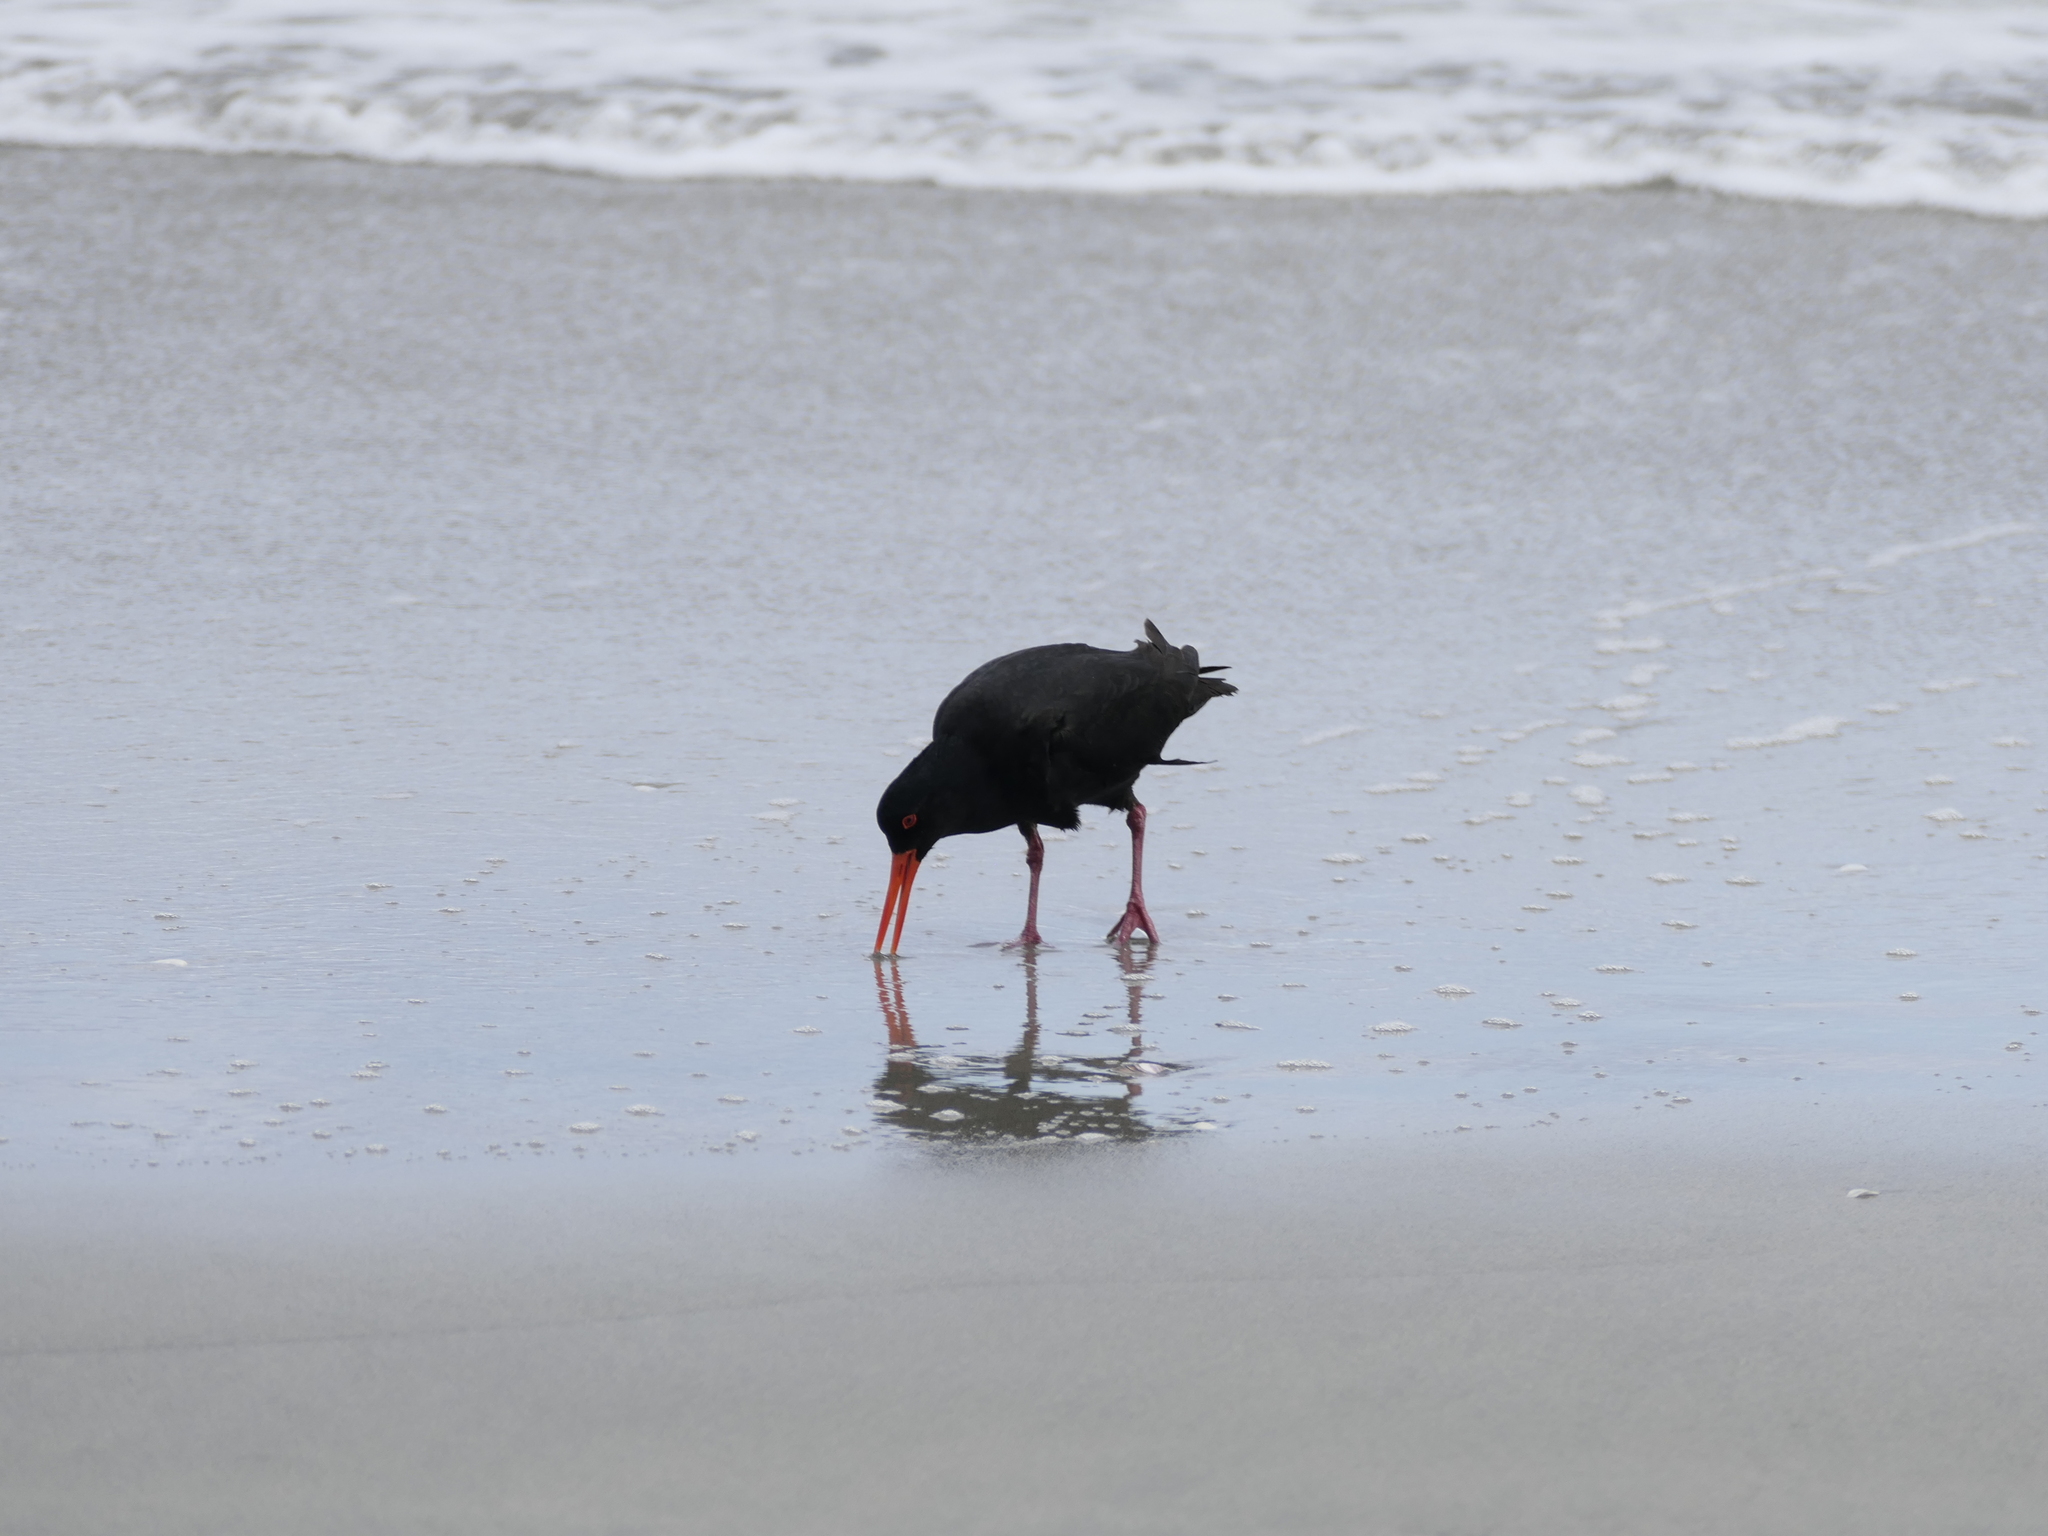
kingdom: Animalia
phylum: Chordata
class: Aves
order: Charadriiformes
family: Haematopodidae
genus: Haematopus
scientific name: Haematopus unicolor
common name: Variable oystercatcher
